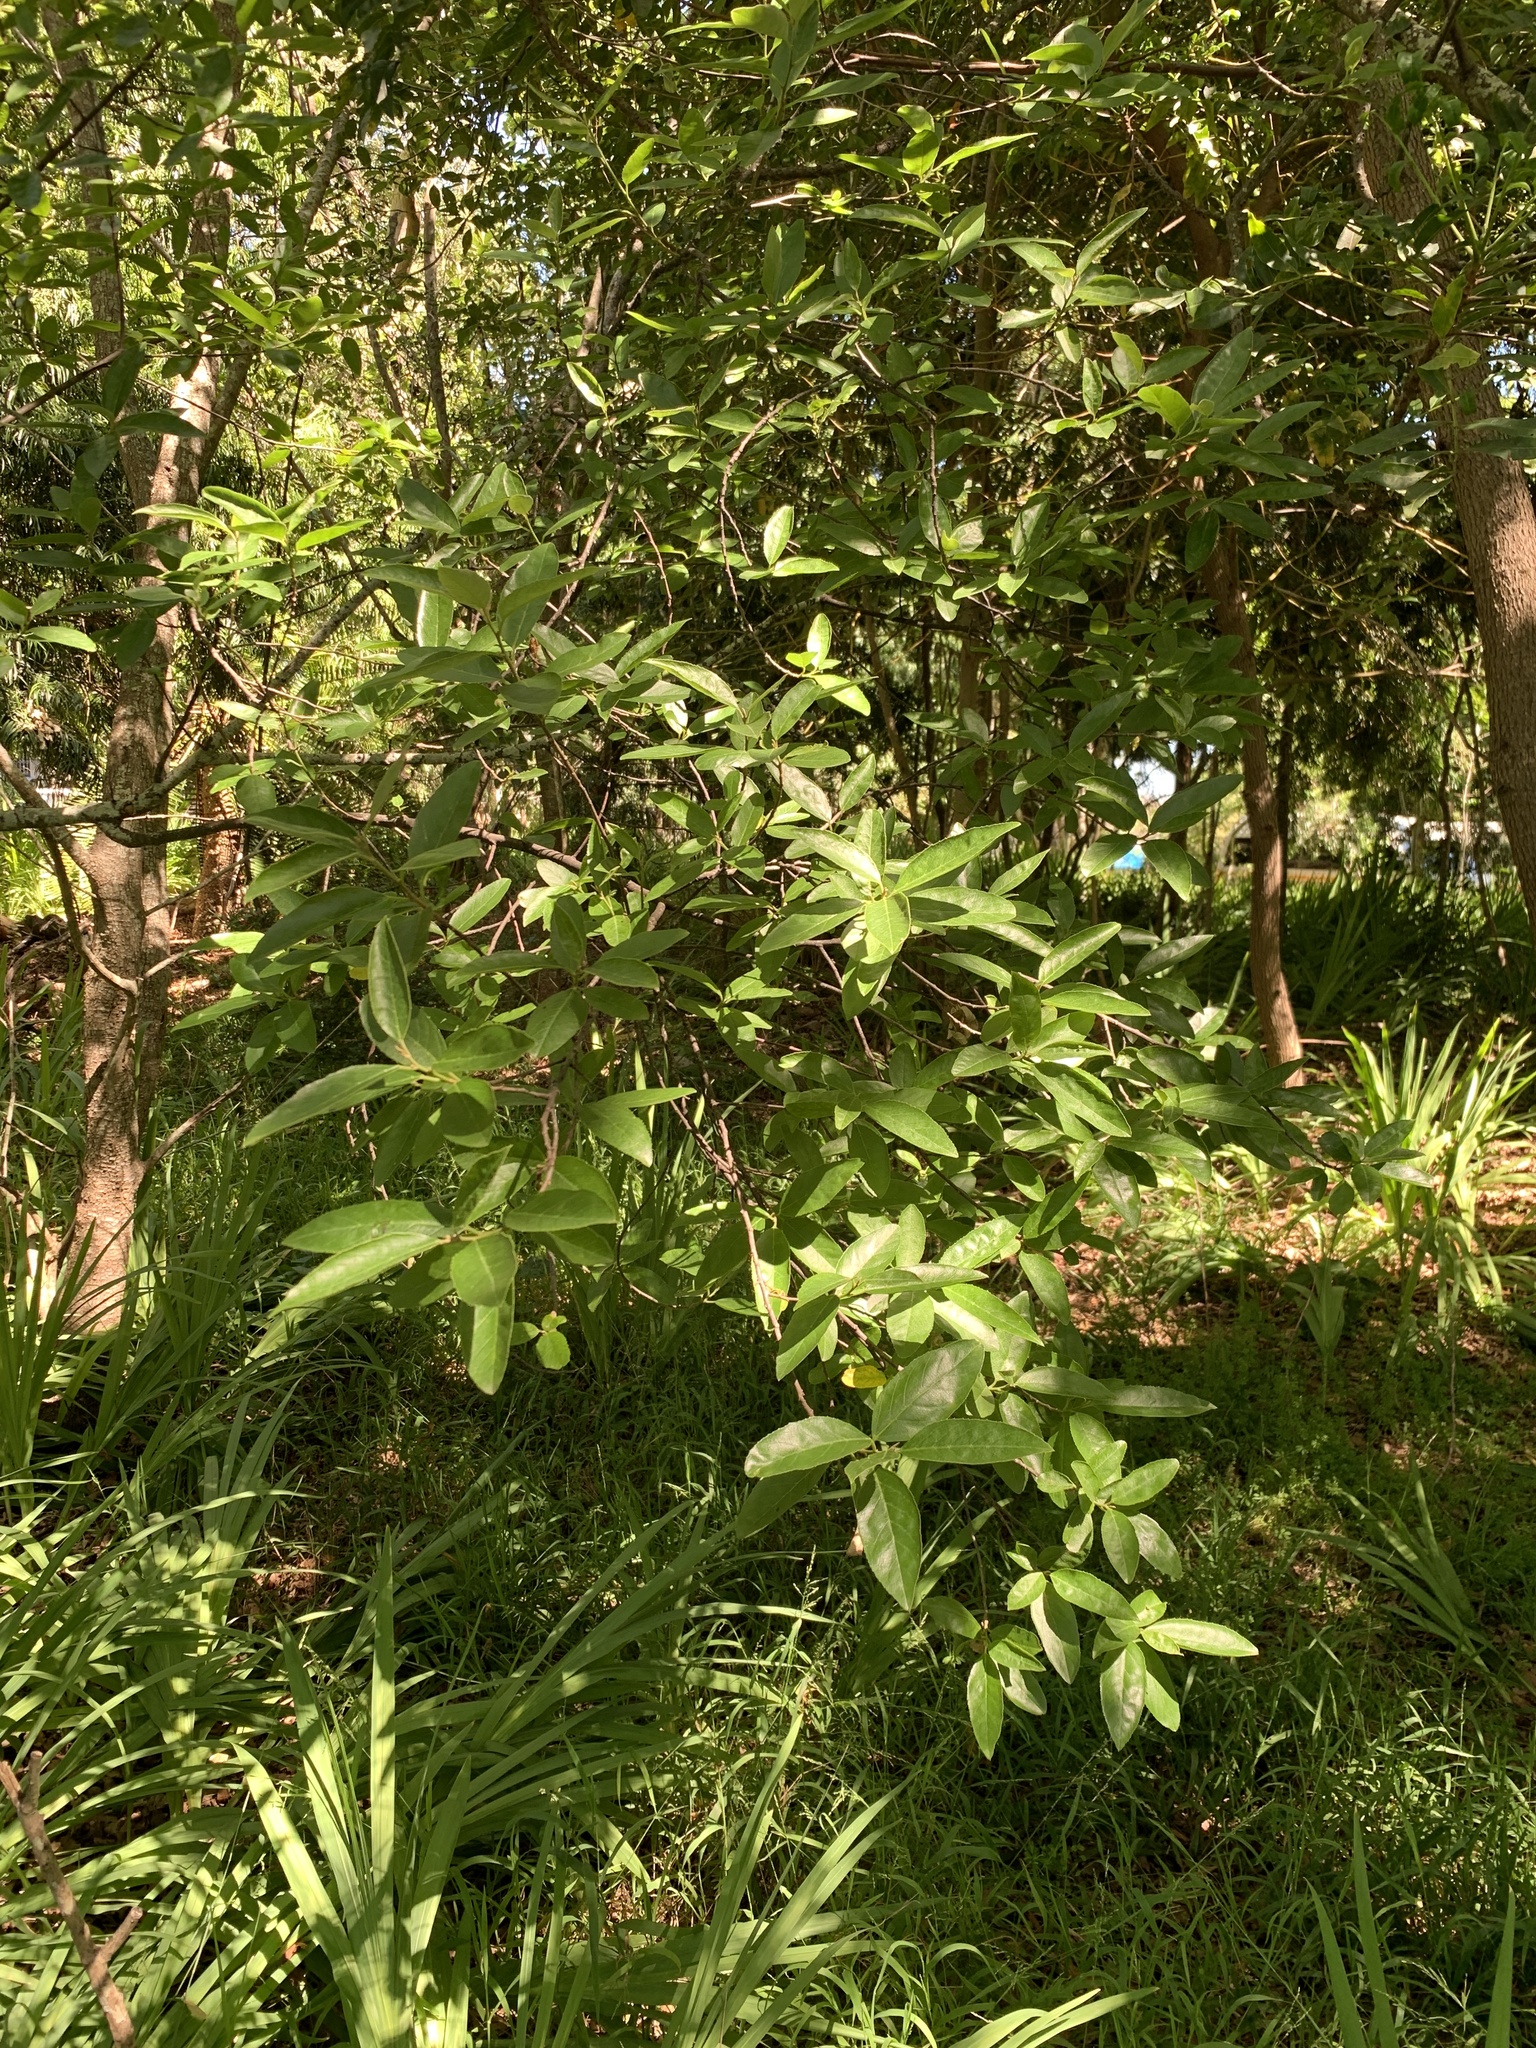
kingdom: Plantae
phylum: Tracheophyta
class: Magnoliopsida
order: Malpighiales
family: Achariaceae
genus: Kiggelaria
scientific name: Kiggelaria africana
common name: Wild peach
